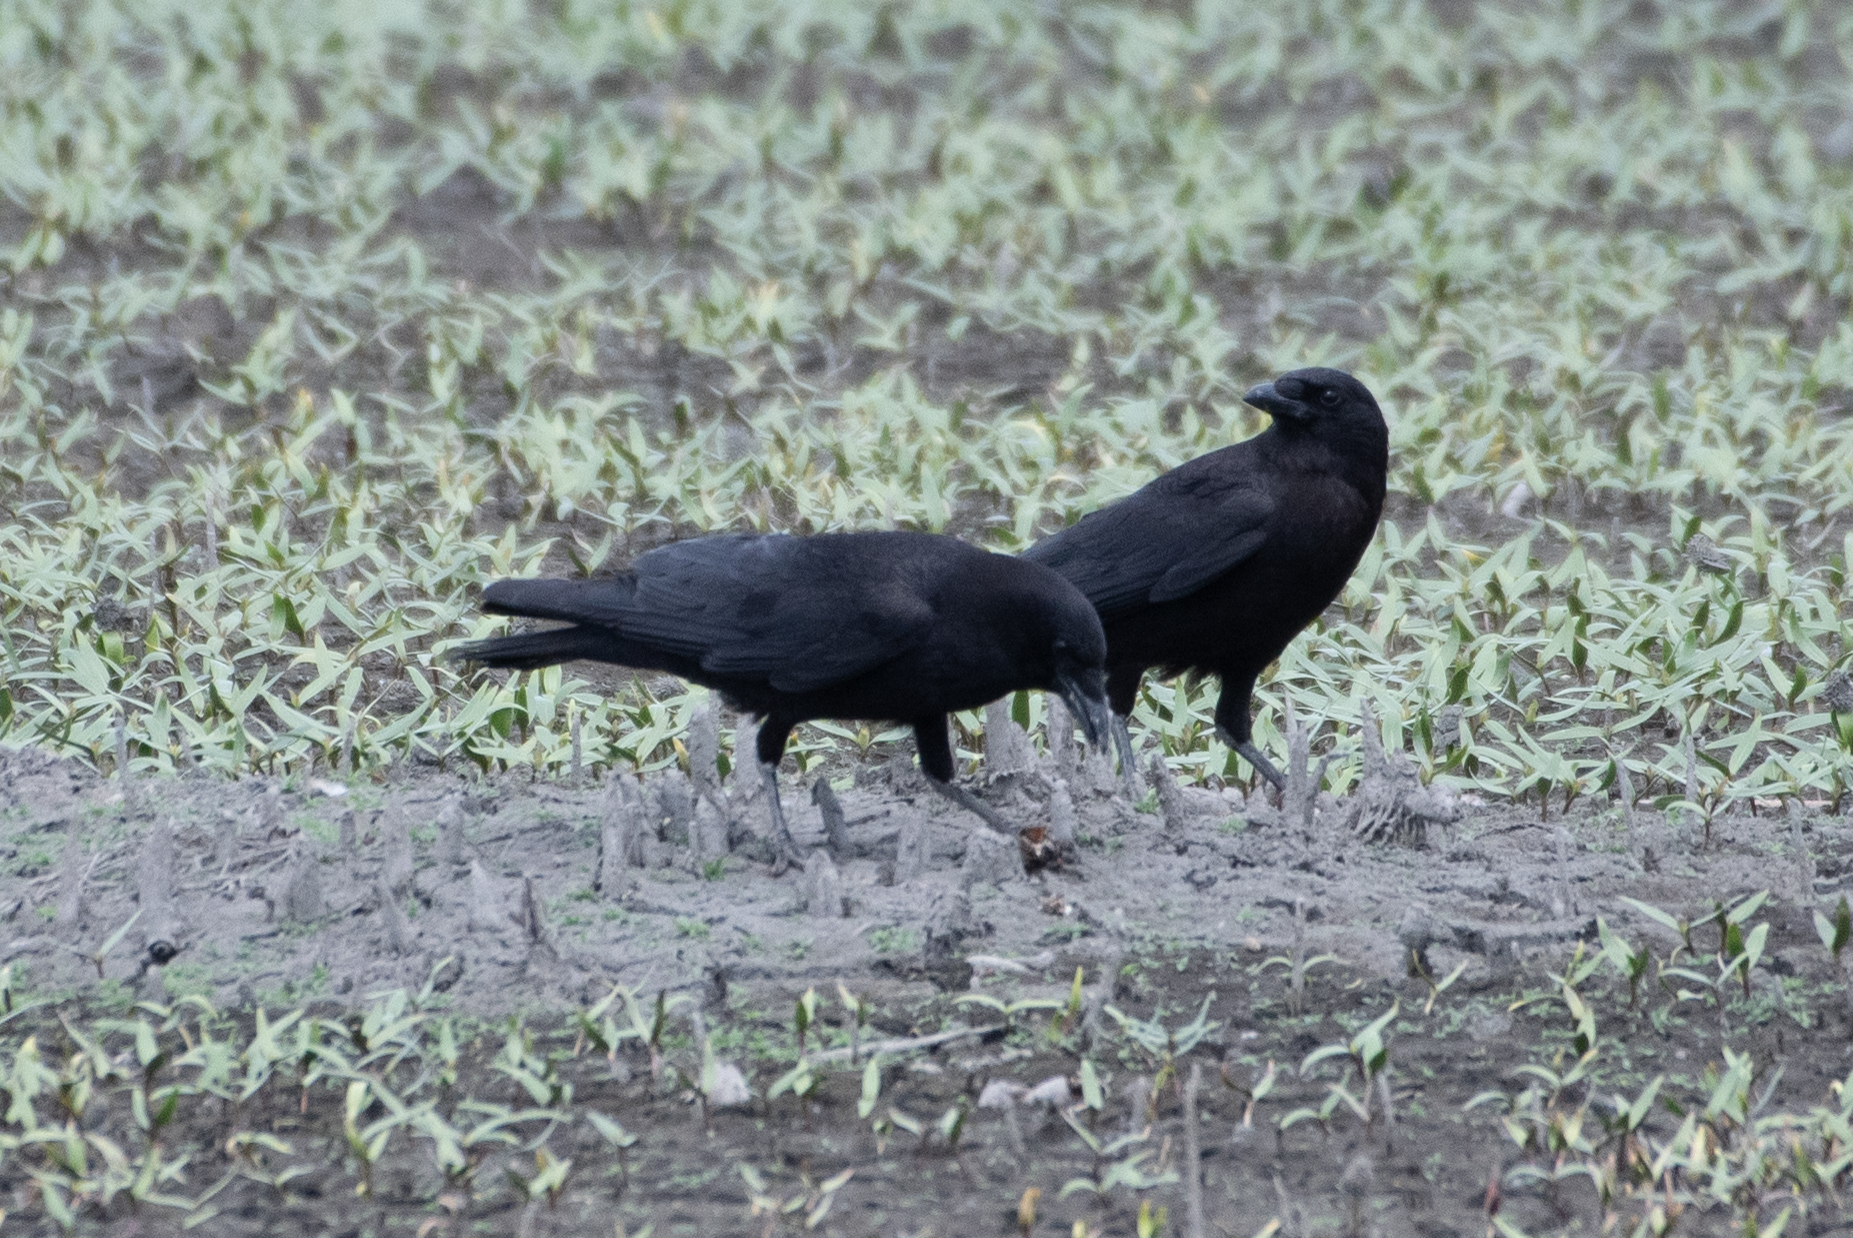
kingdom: Animalia
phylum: Chordata
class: Aves
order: Passeriformes
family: Corvidae
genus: Corvus
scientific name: Corvus brachyrhynchos
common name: American crow
